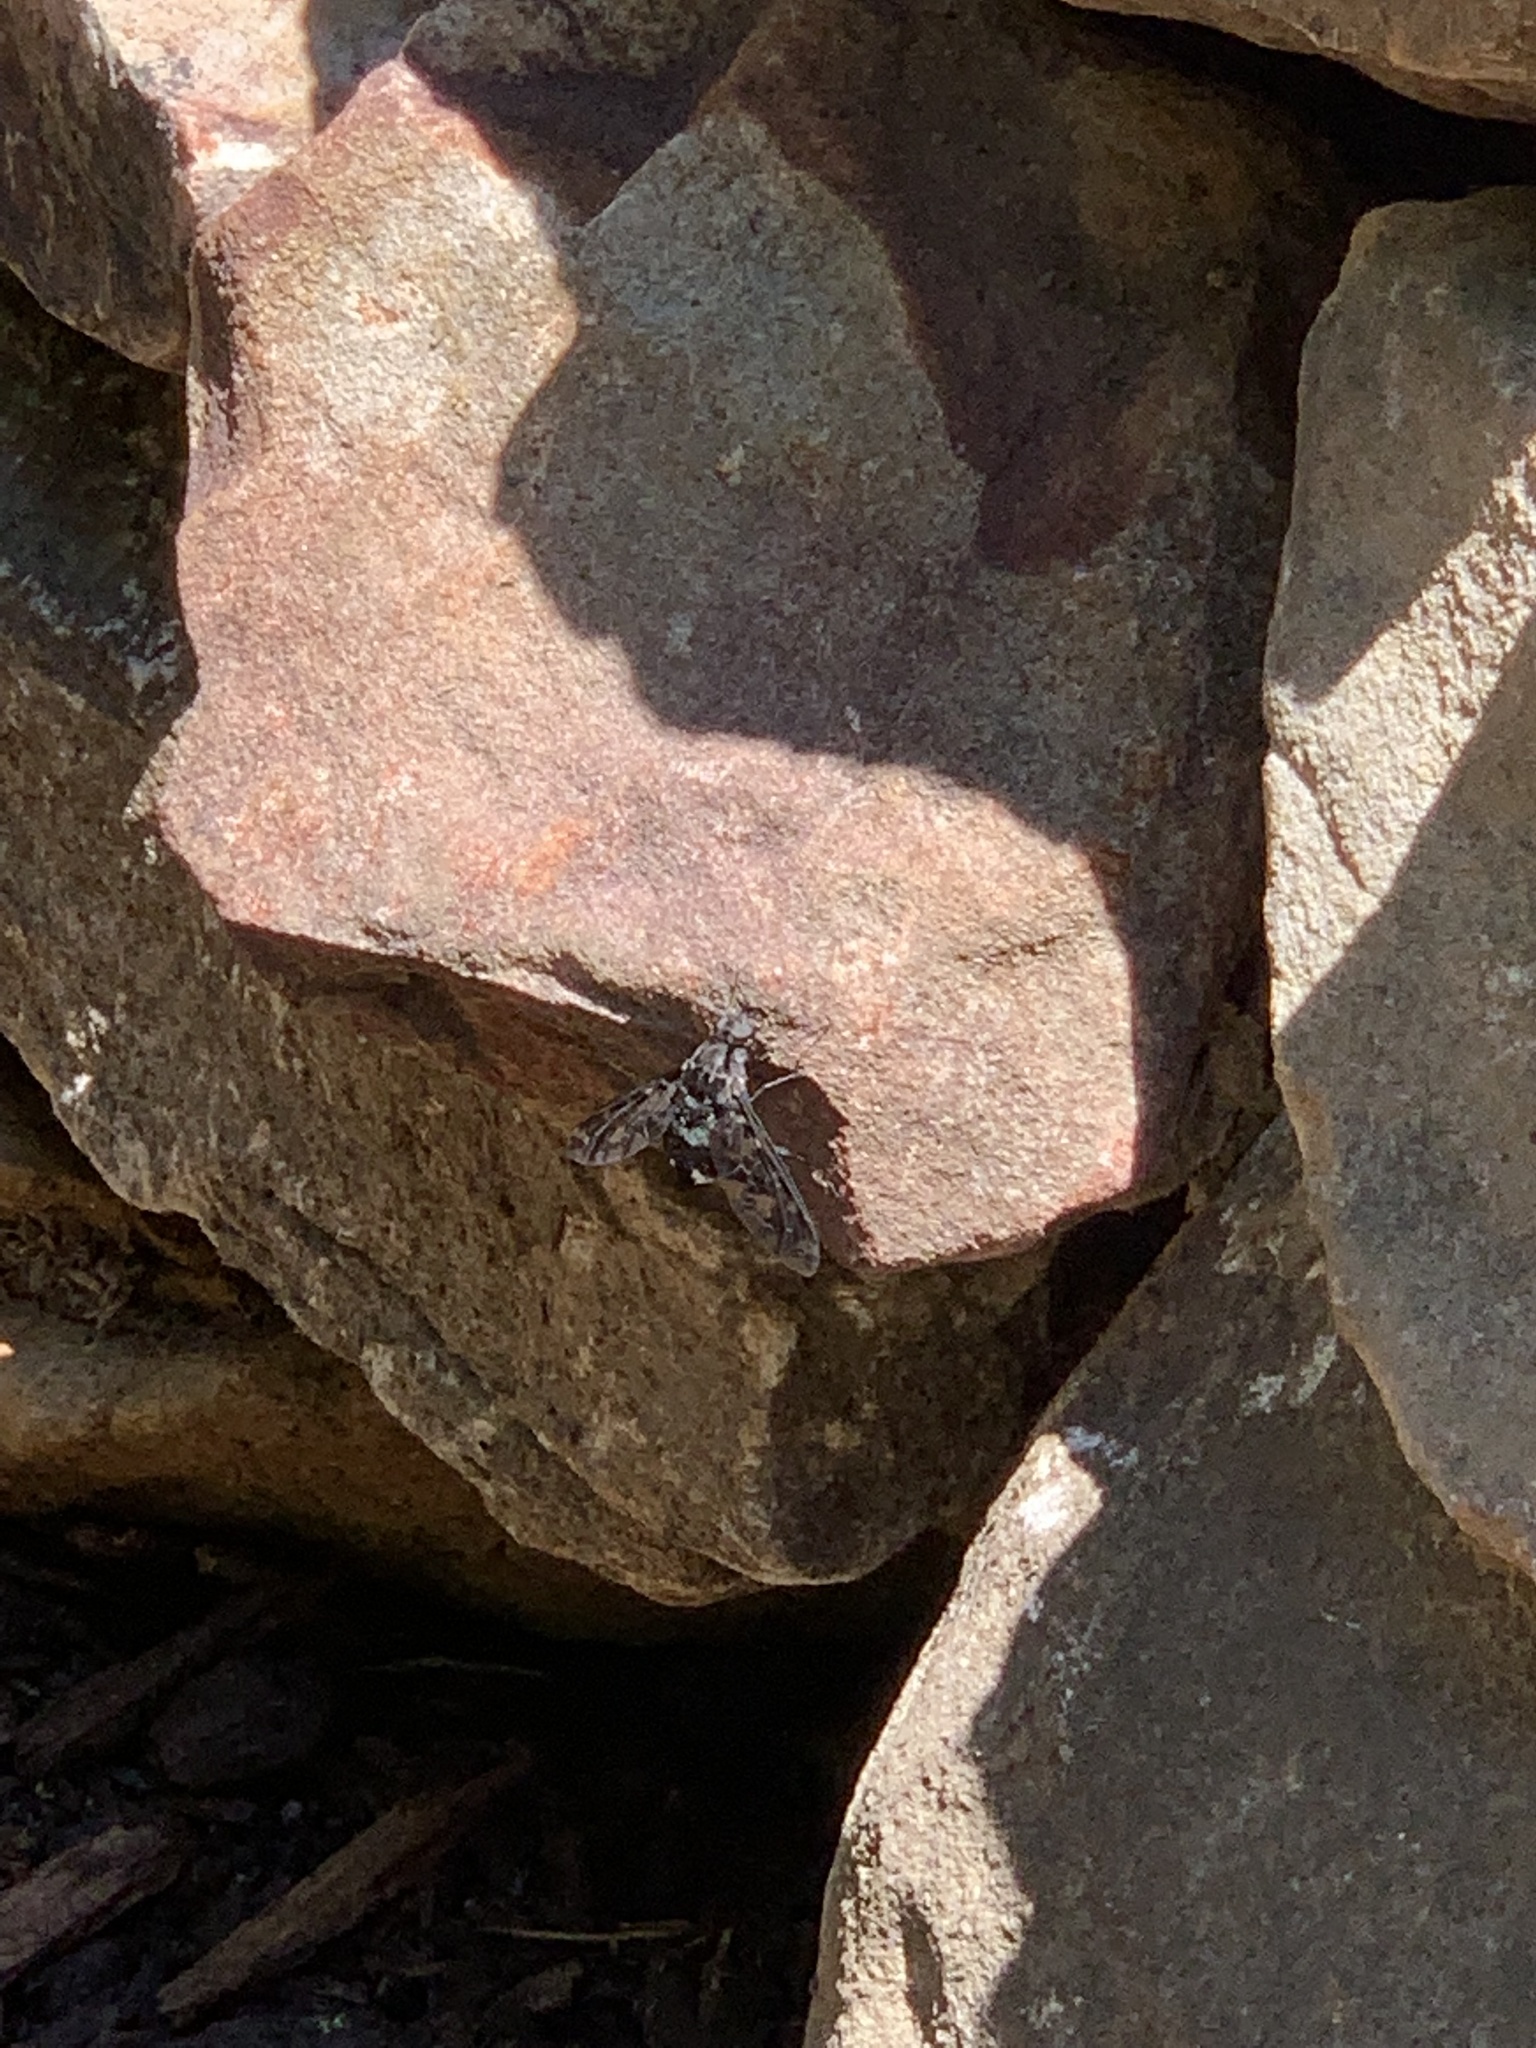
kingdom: Animalia
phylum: Arthropoda
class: Insecta
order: Diptera
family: Bombyliidae
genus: Xenox
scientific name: Xenox tigrinus
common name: Tiger bee fly
